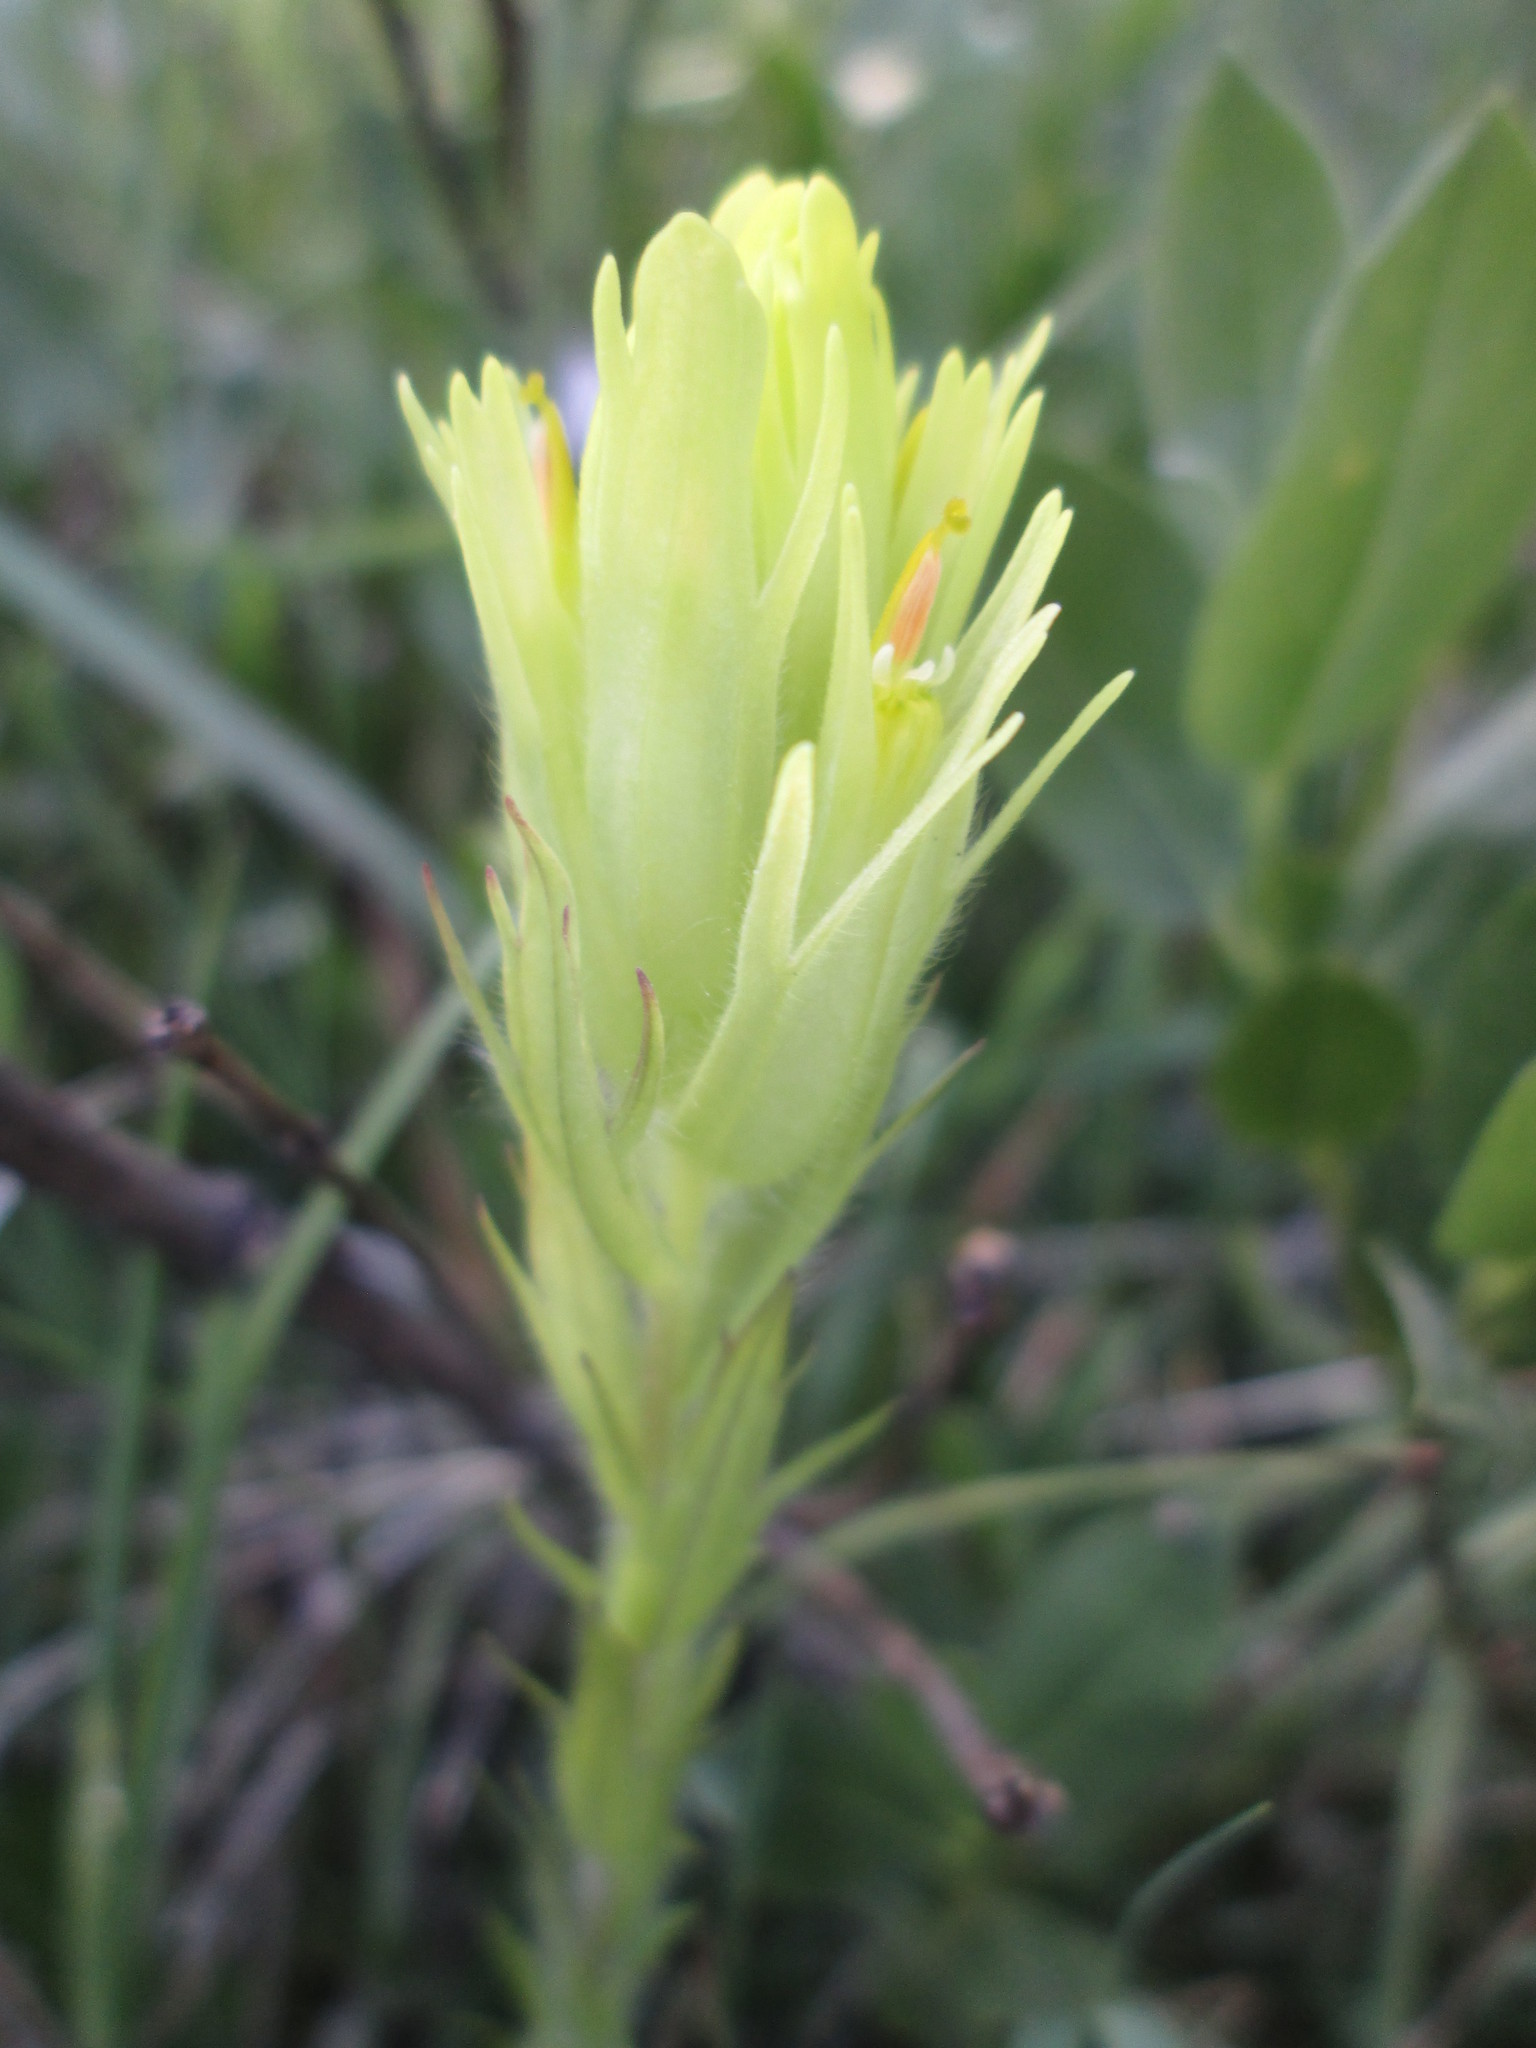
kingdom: Plantae
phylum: Tracheophyta
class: Magnoliopsida
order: Lamiales
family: Orobanchaceae
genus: Castilleja
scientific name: Castilleja cusickii
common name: Cusick's paintbrush
